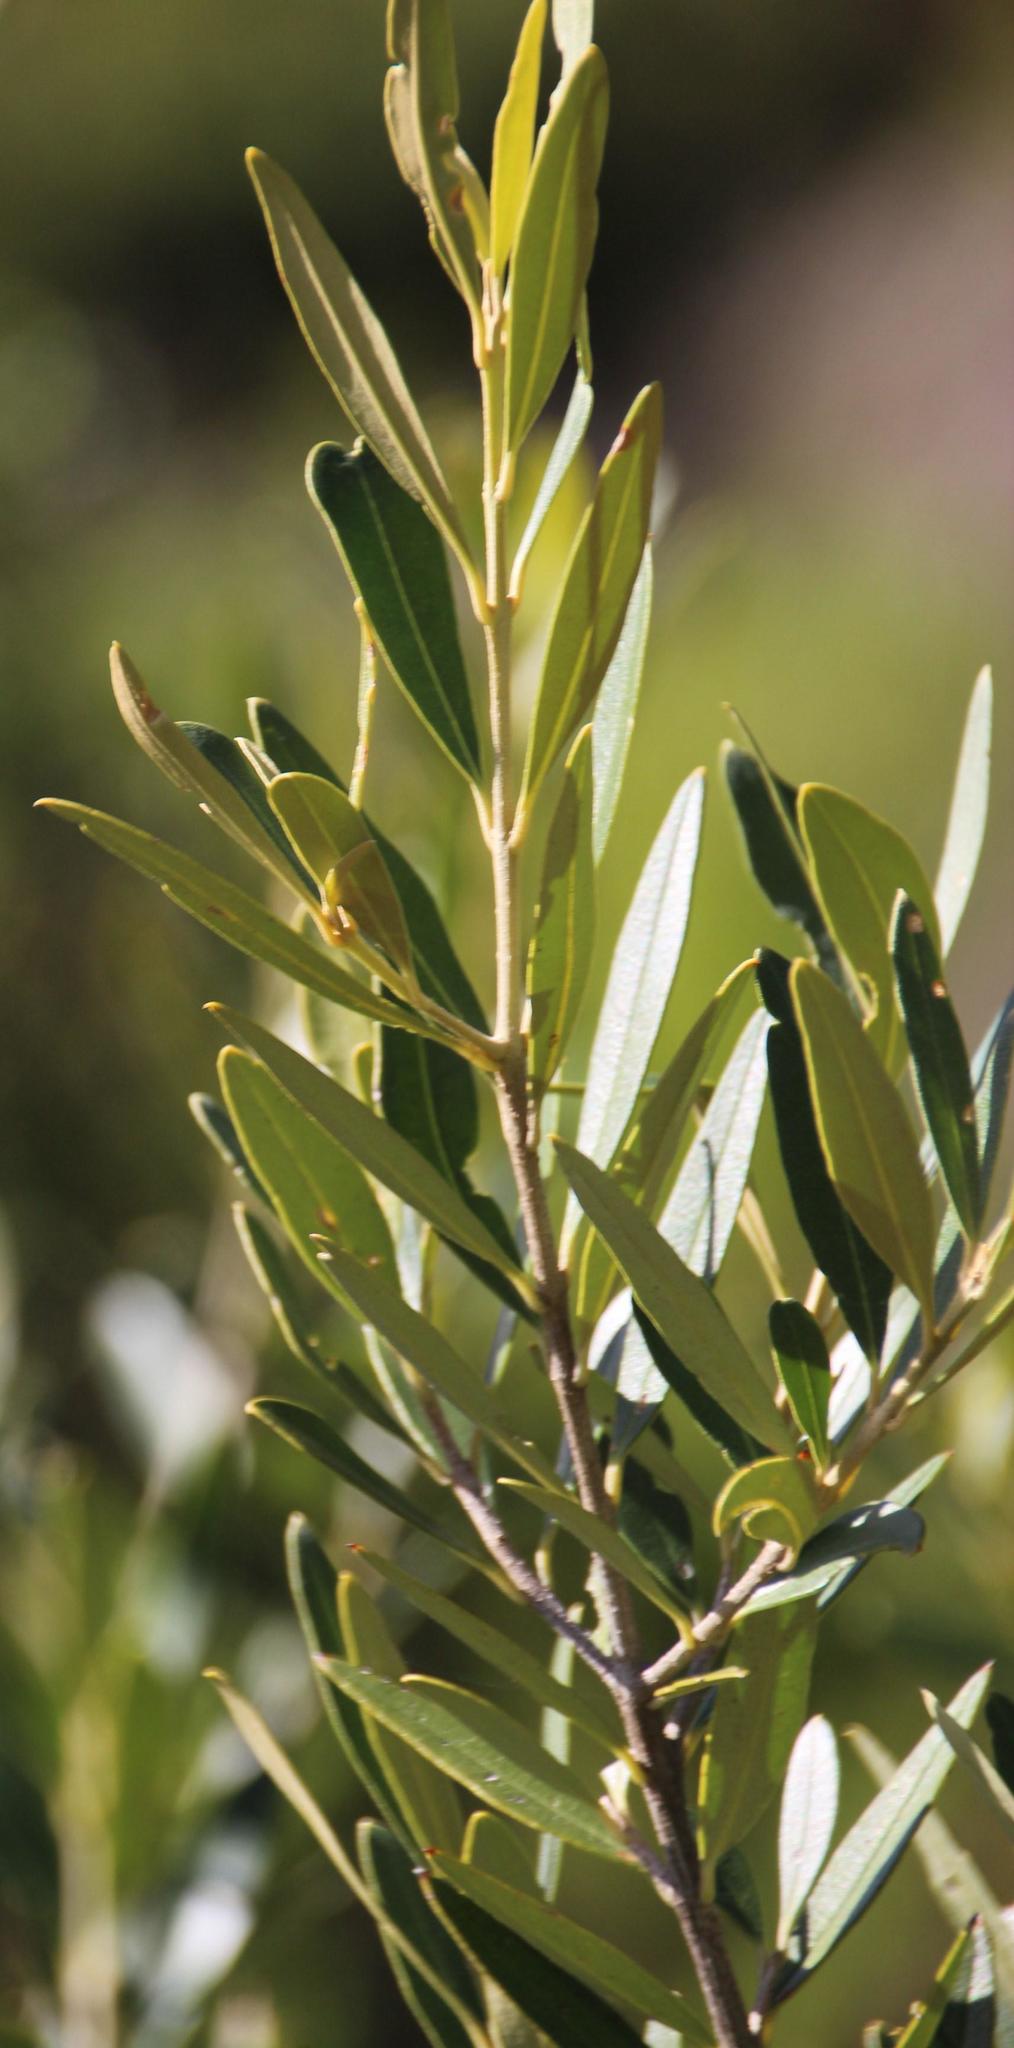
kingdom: Plantae
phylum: Tracheophyta
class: Magnoliopsida
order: Lamiales
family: Oleaceae
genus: Olea
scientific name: Olea europaea
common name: Olive
